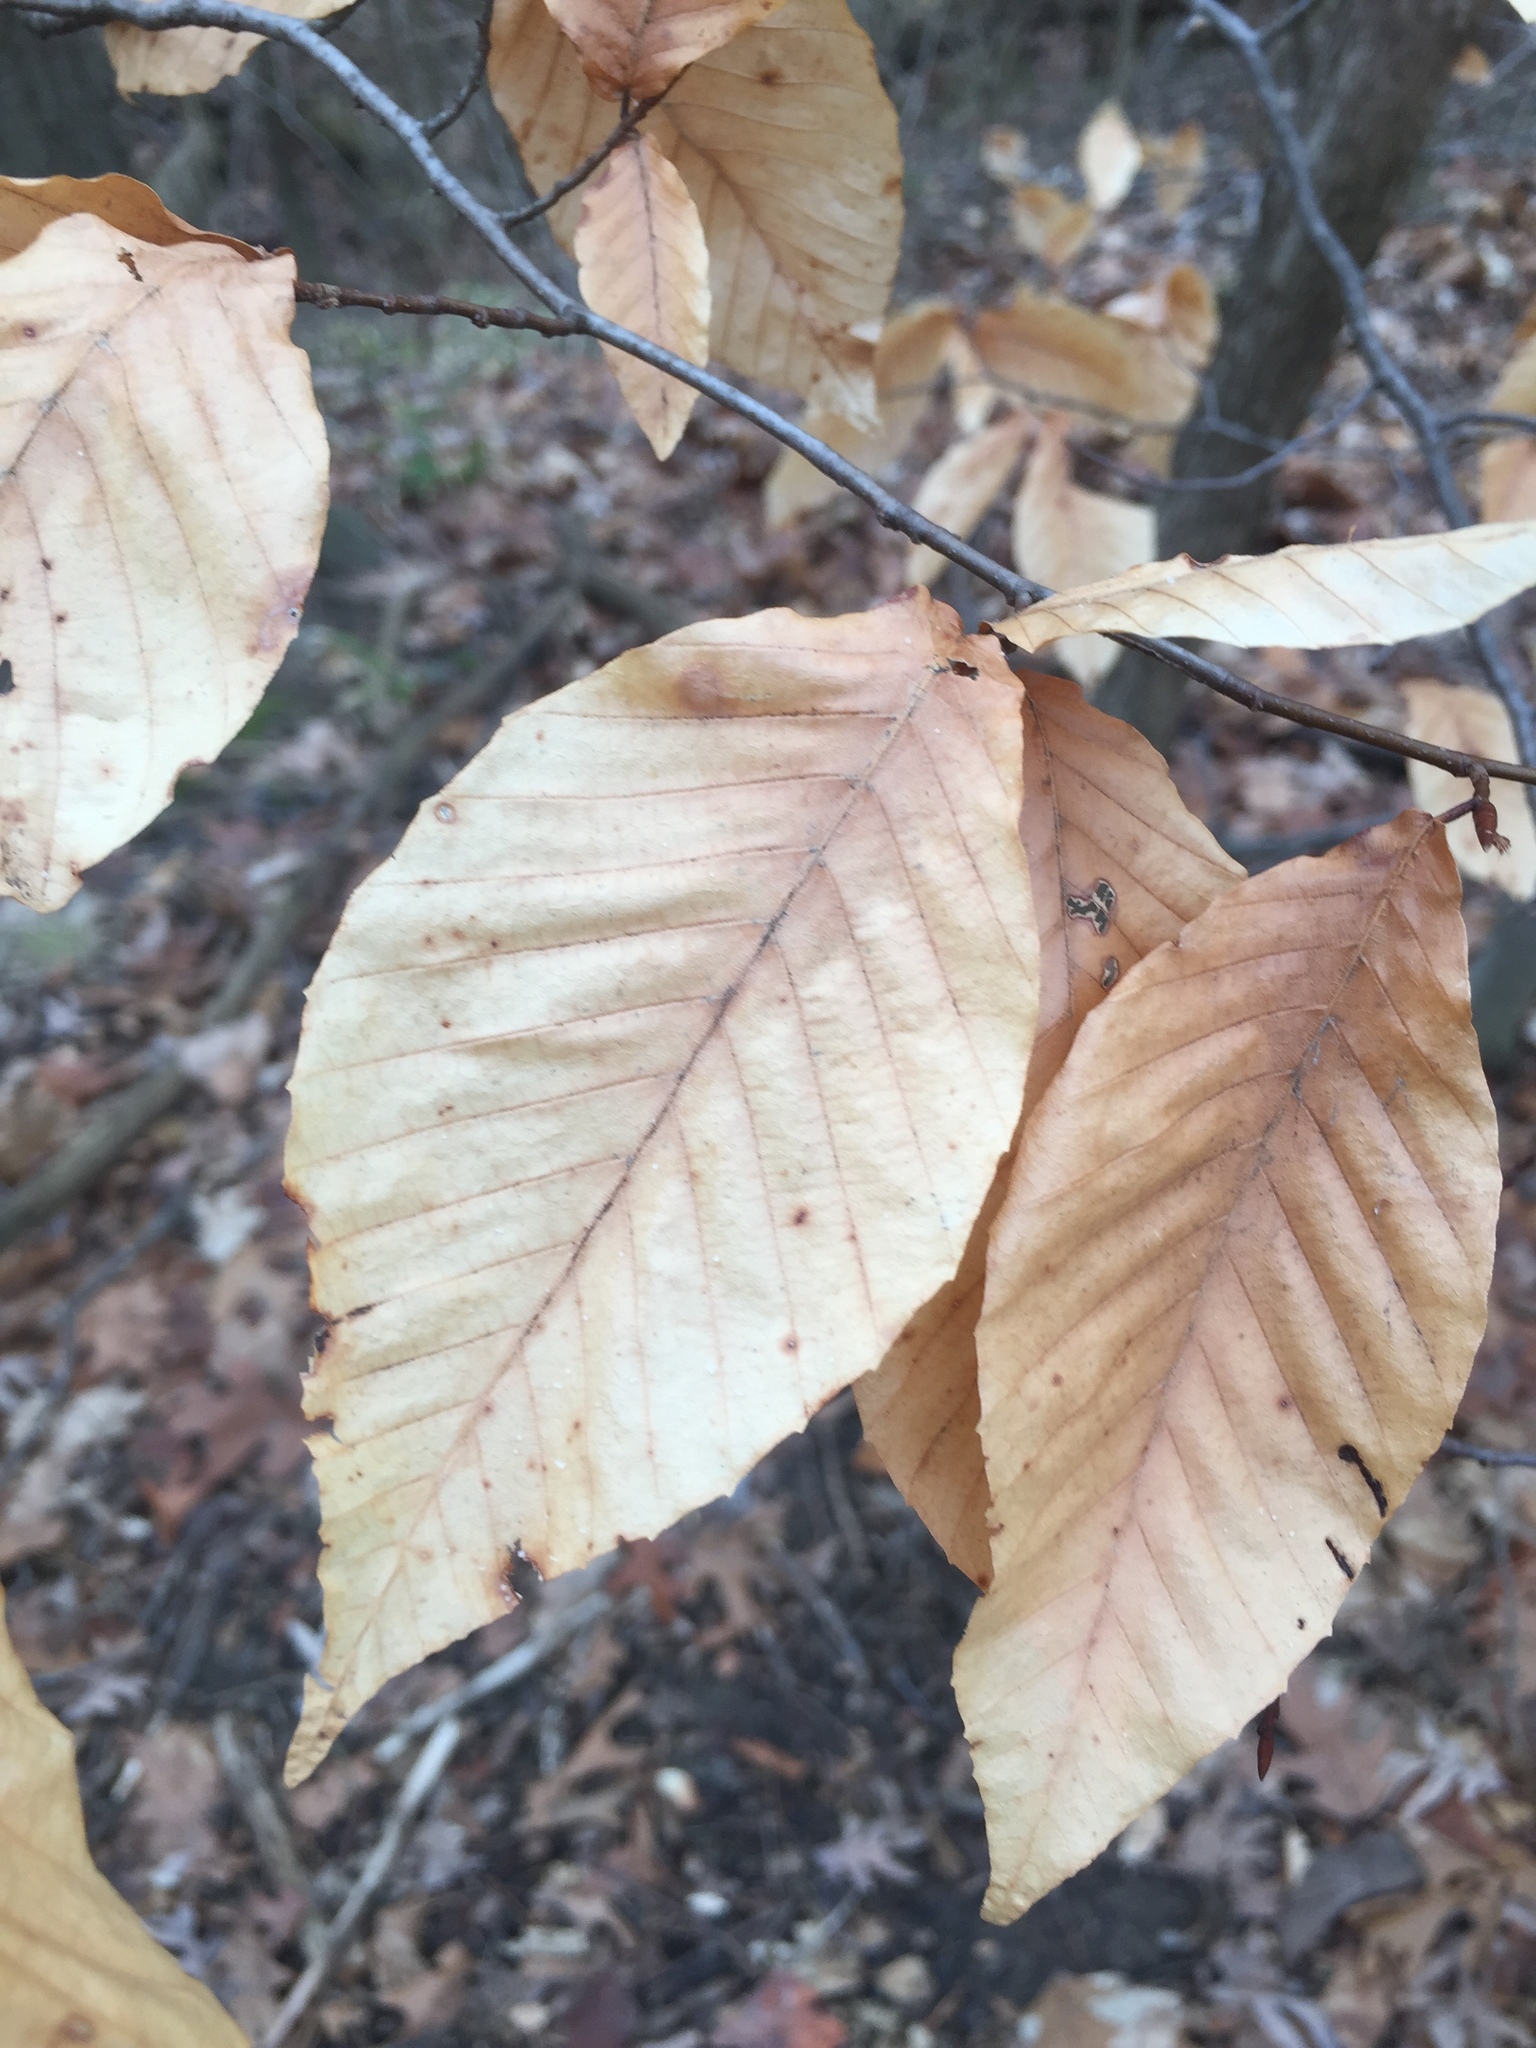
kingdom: Plantae
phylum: Tracheophyta
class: Magnoliopsida
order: Fagales
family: Fagaceae
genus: Fagus
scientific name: Fagus grandifolia
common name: American beech
